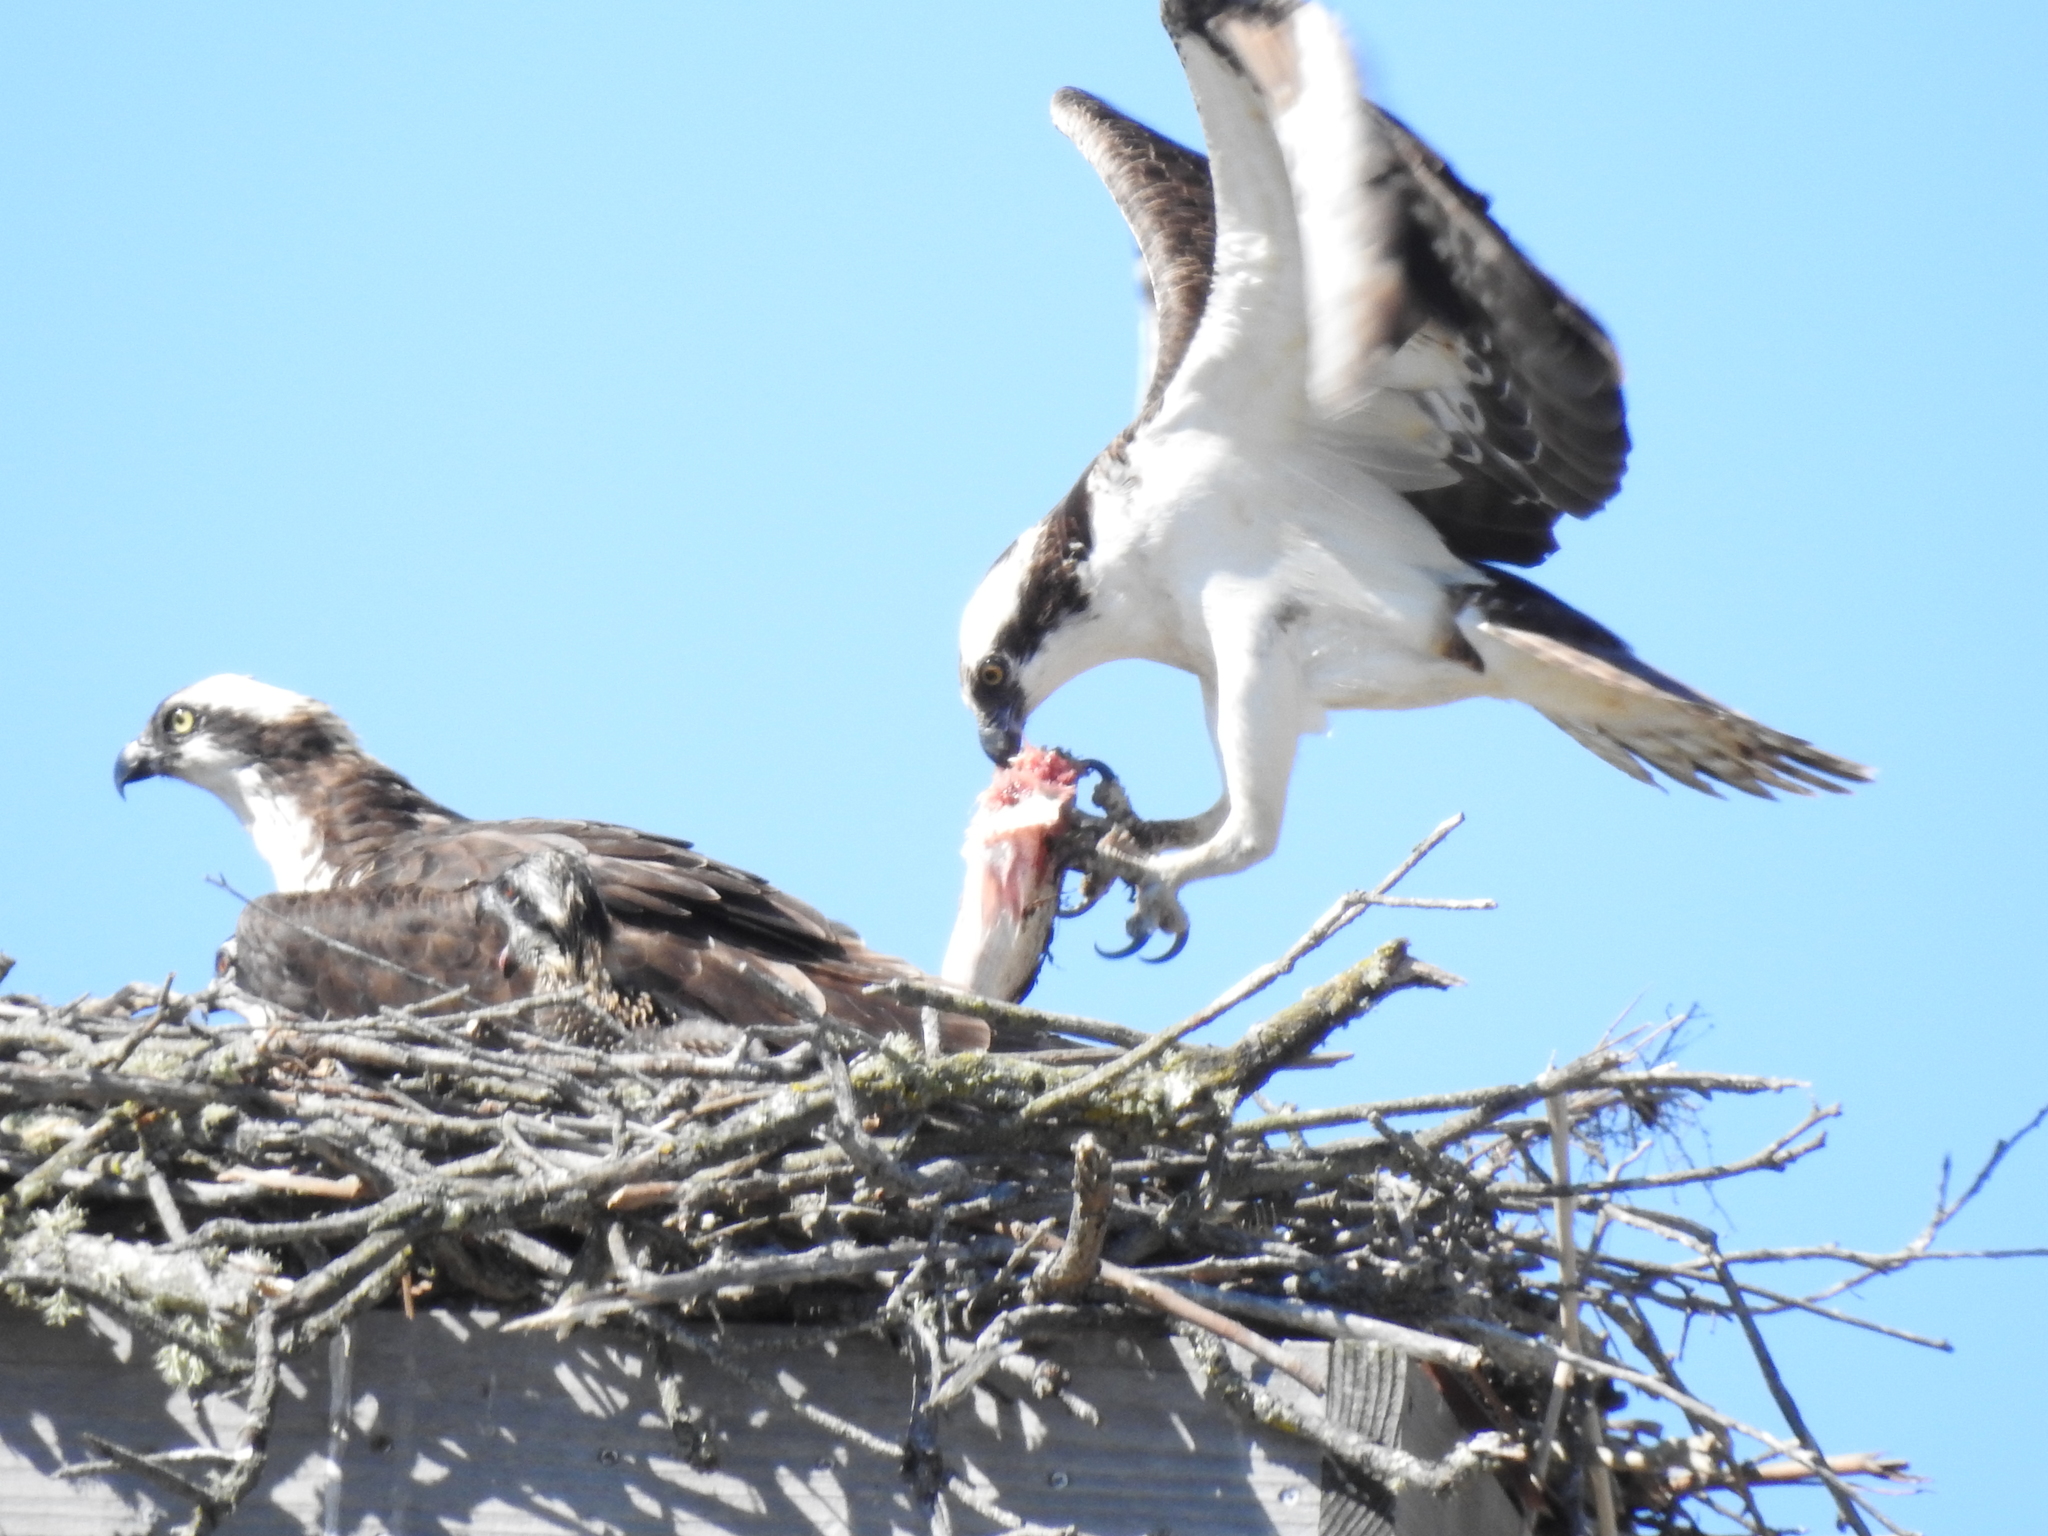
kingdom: Animalia
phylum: Chordata
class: Aves
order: Accipitriformes
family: Pandionidae
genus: Pandion
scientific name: Pandion haliaetus
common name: Osprey
